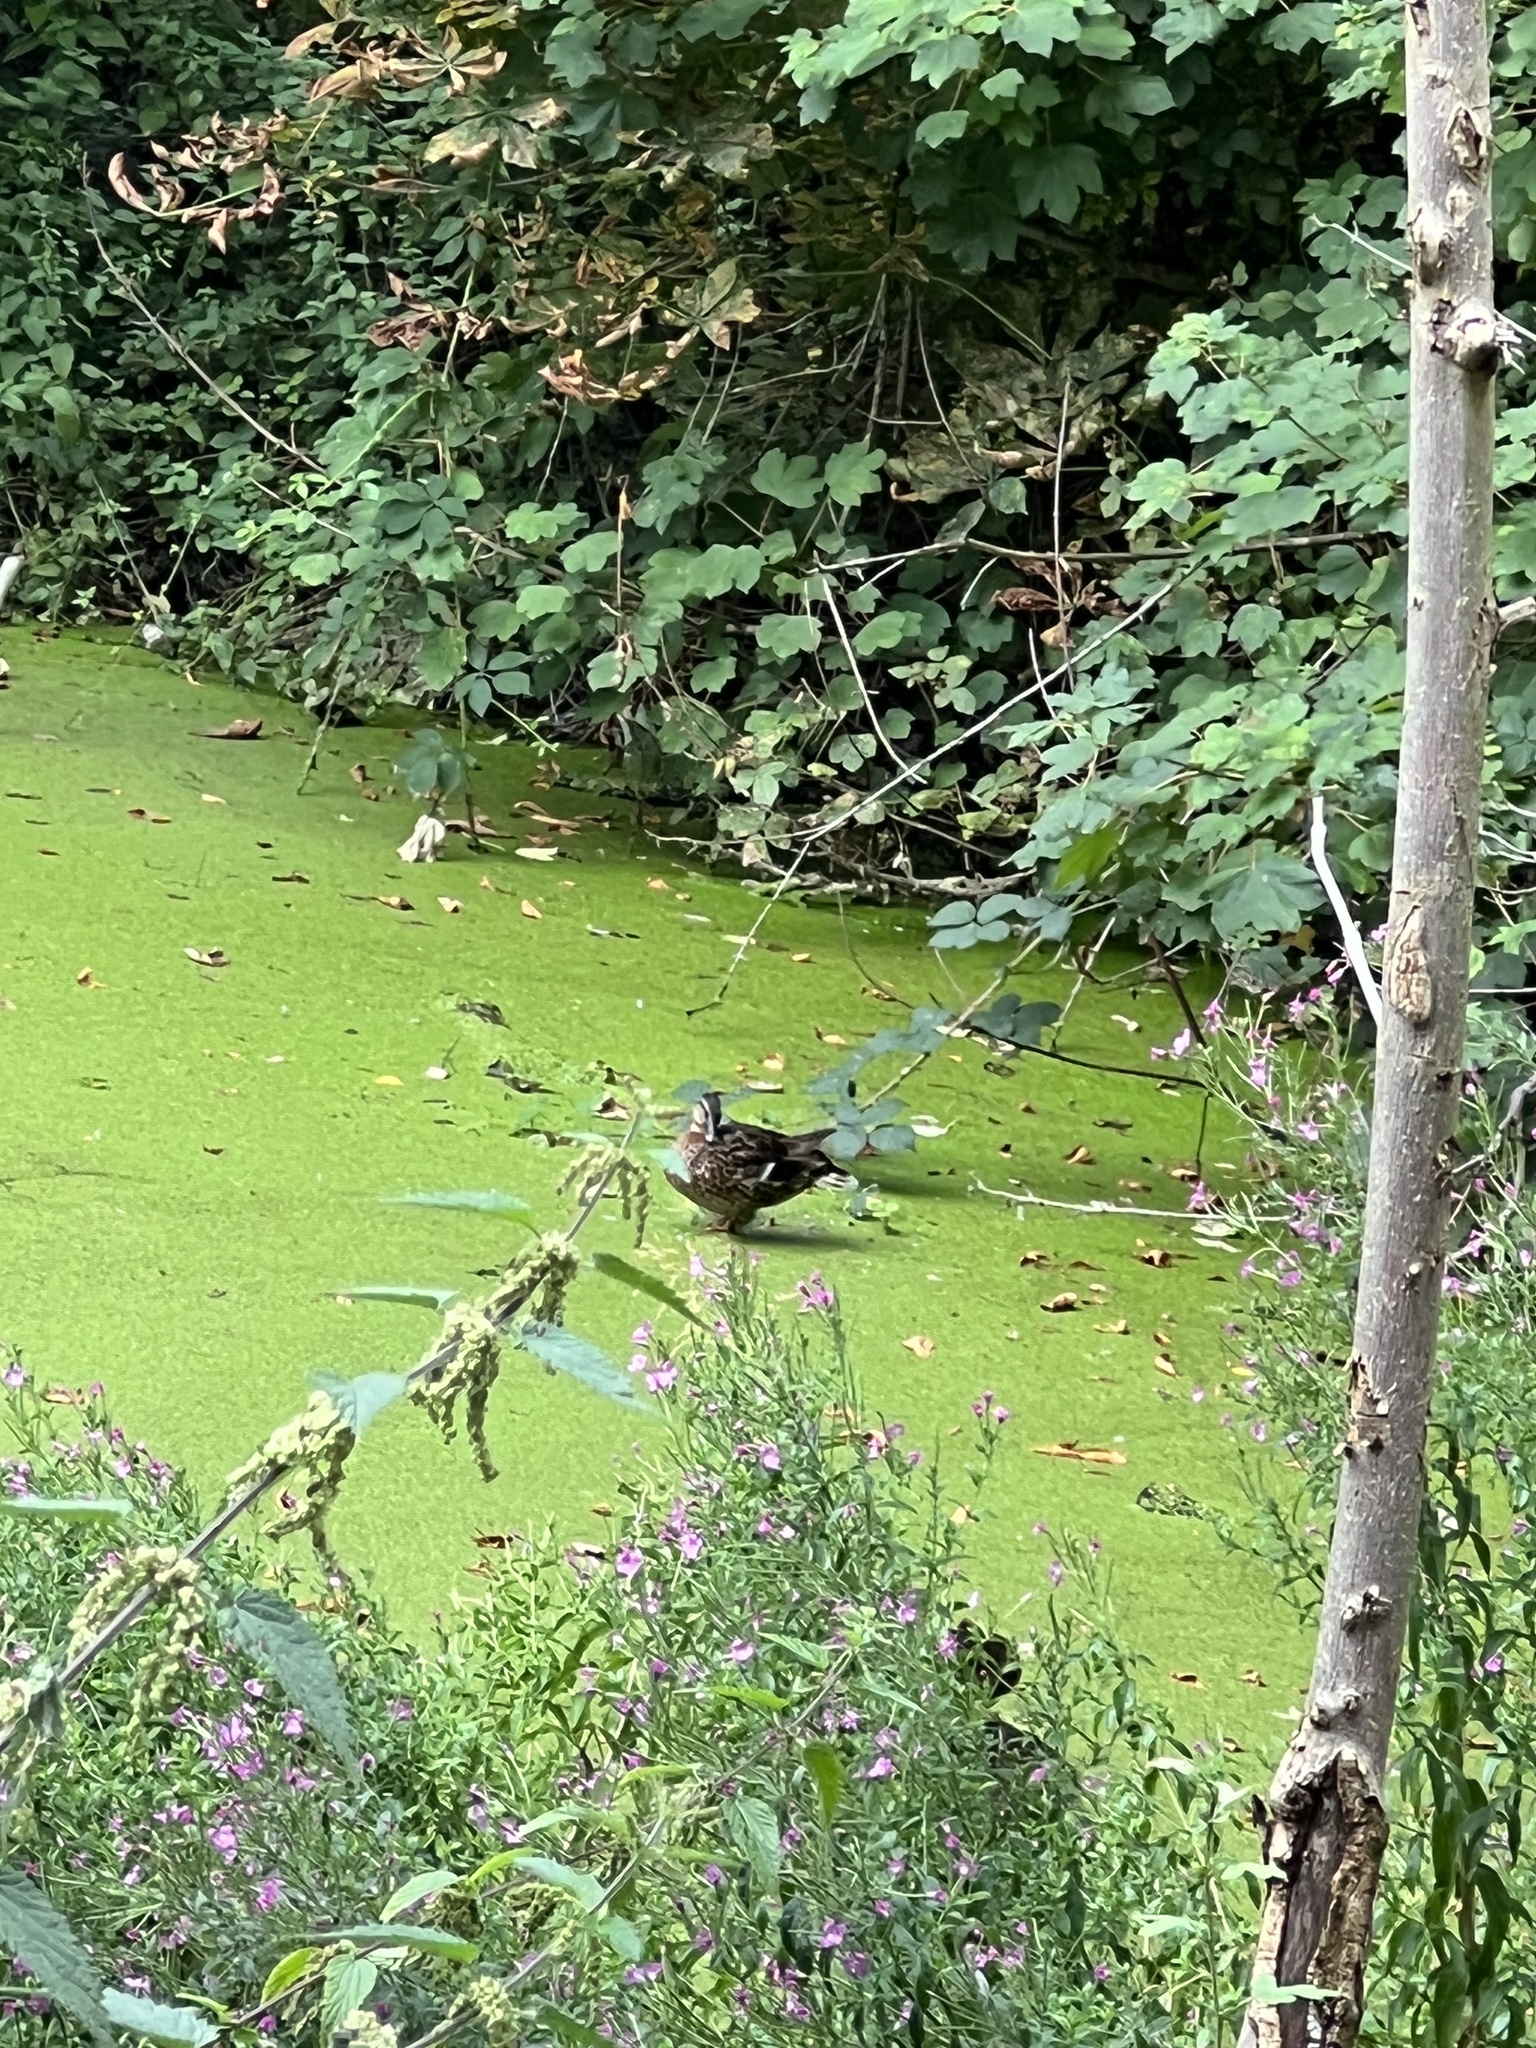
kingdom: Animalia
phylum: Chordata
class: Aves
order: Anseriformes
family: Anatidae
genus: Anas
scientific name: Anas platyrhynchos
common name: Mallard
